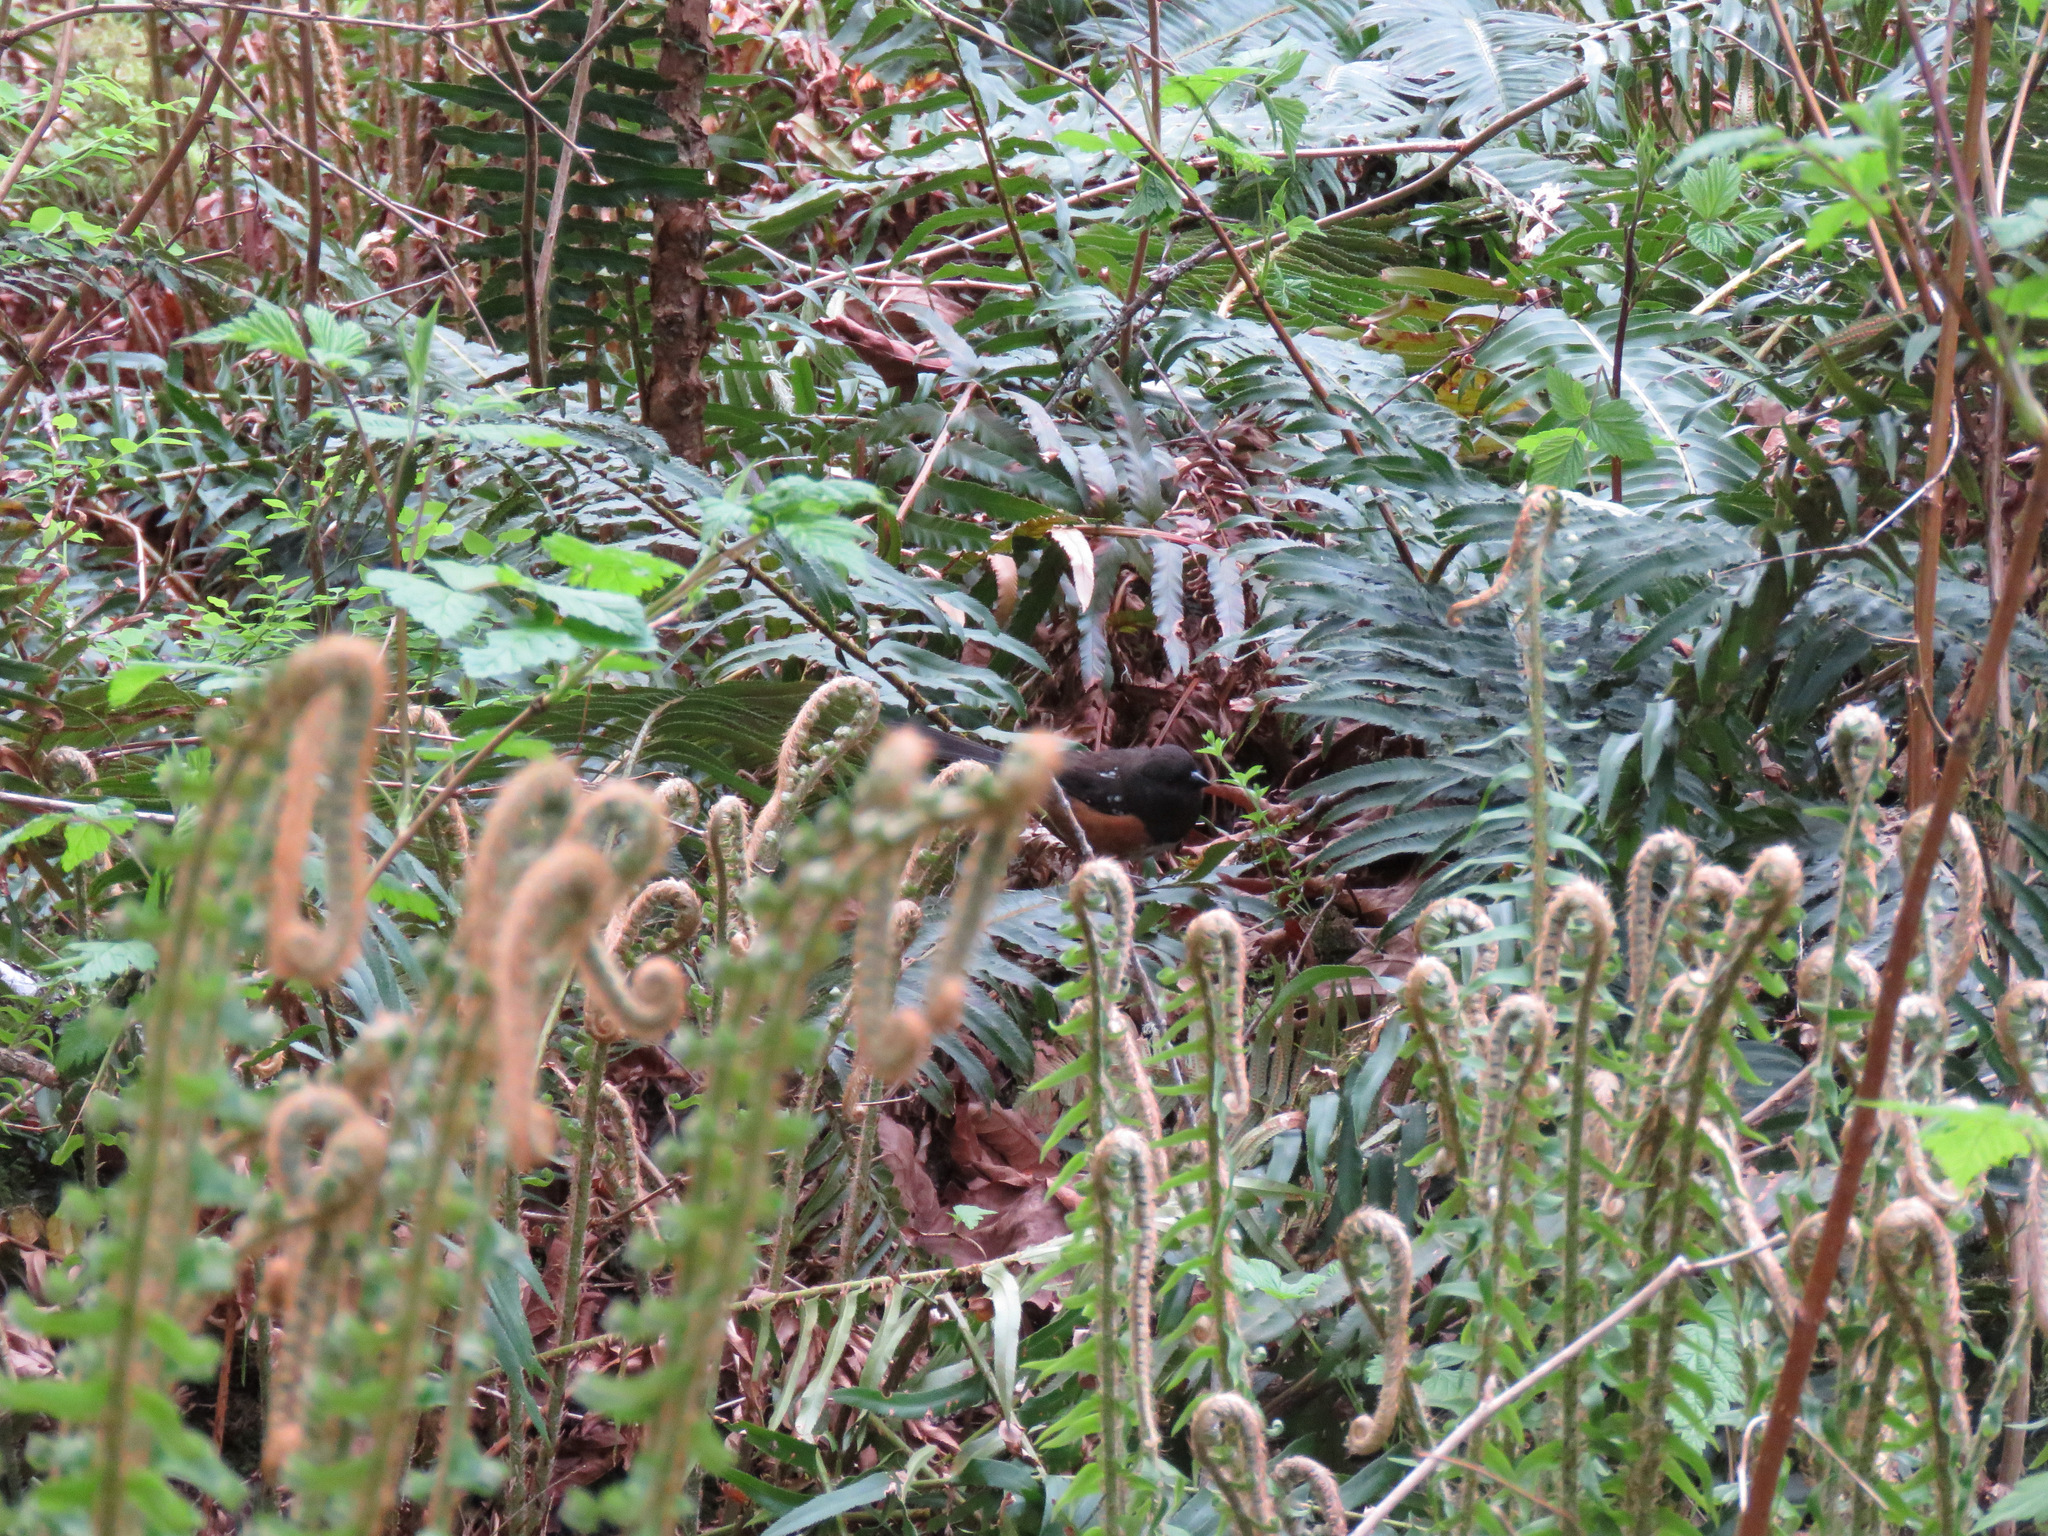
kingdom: Animalia
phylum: Chordata
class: Aves
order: Passeriformes
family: Passerellidae
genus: Pipilo
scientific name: Pipilo maculatus
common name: Spotted towhee
